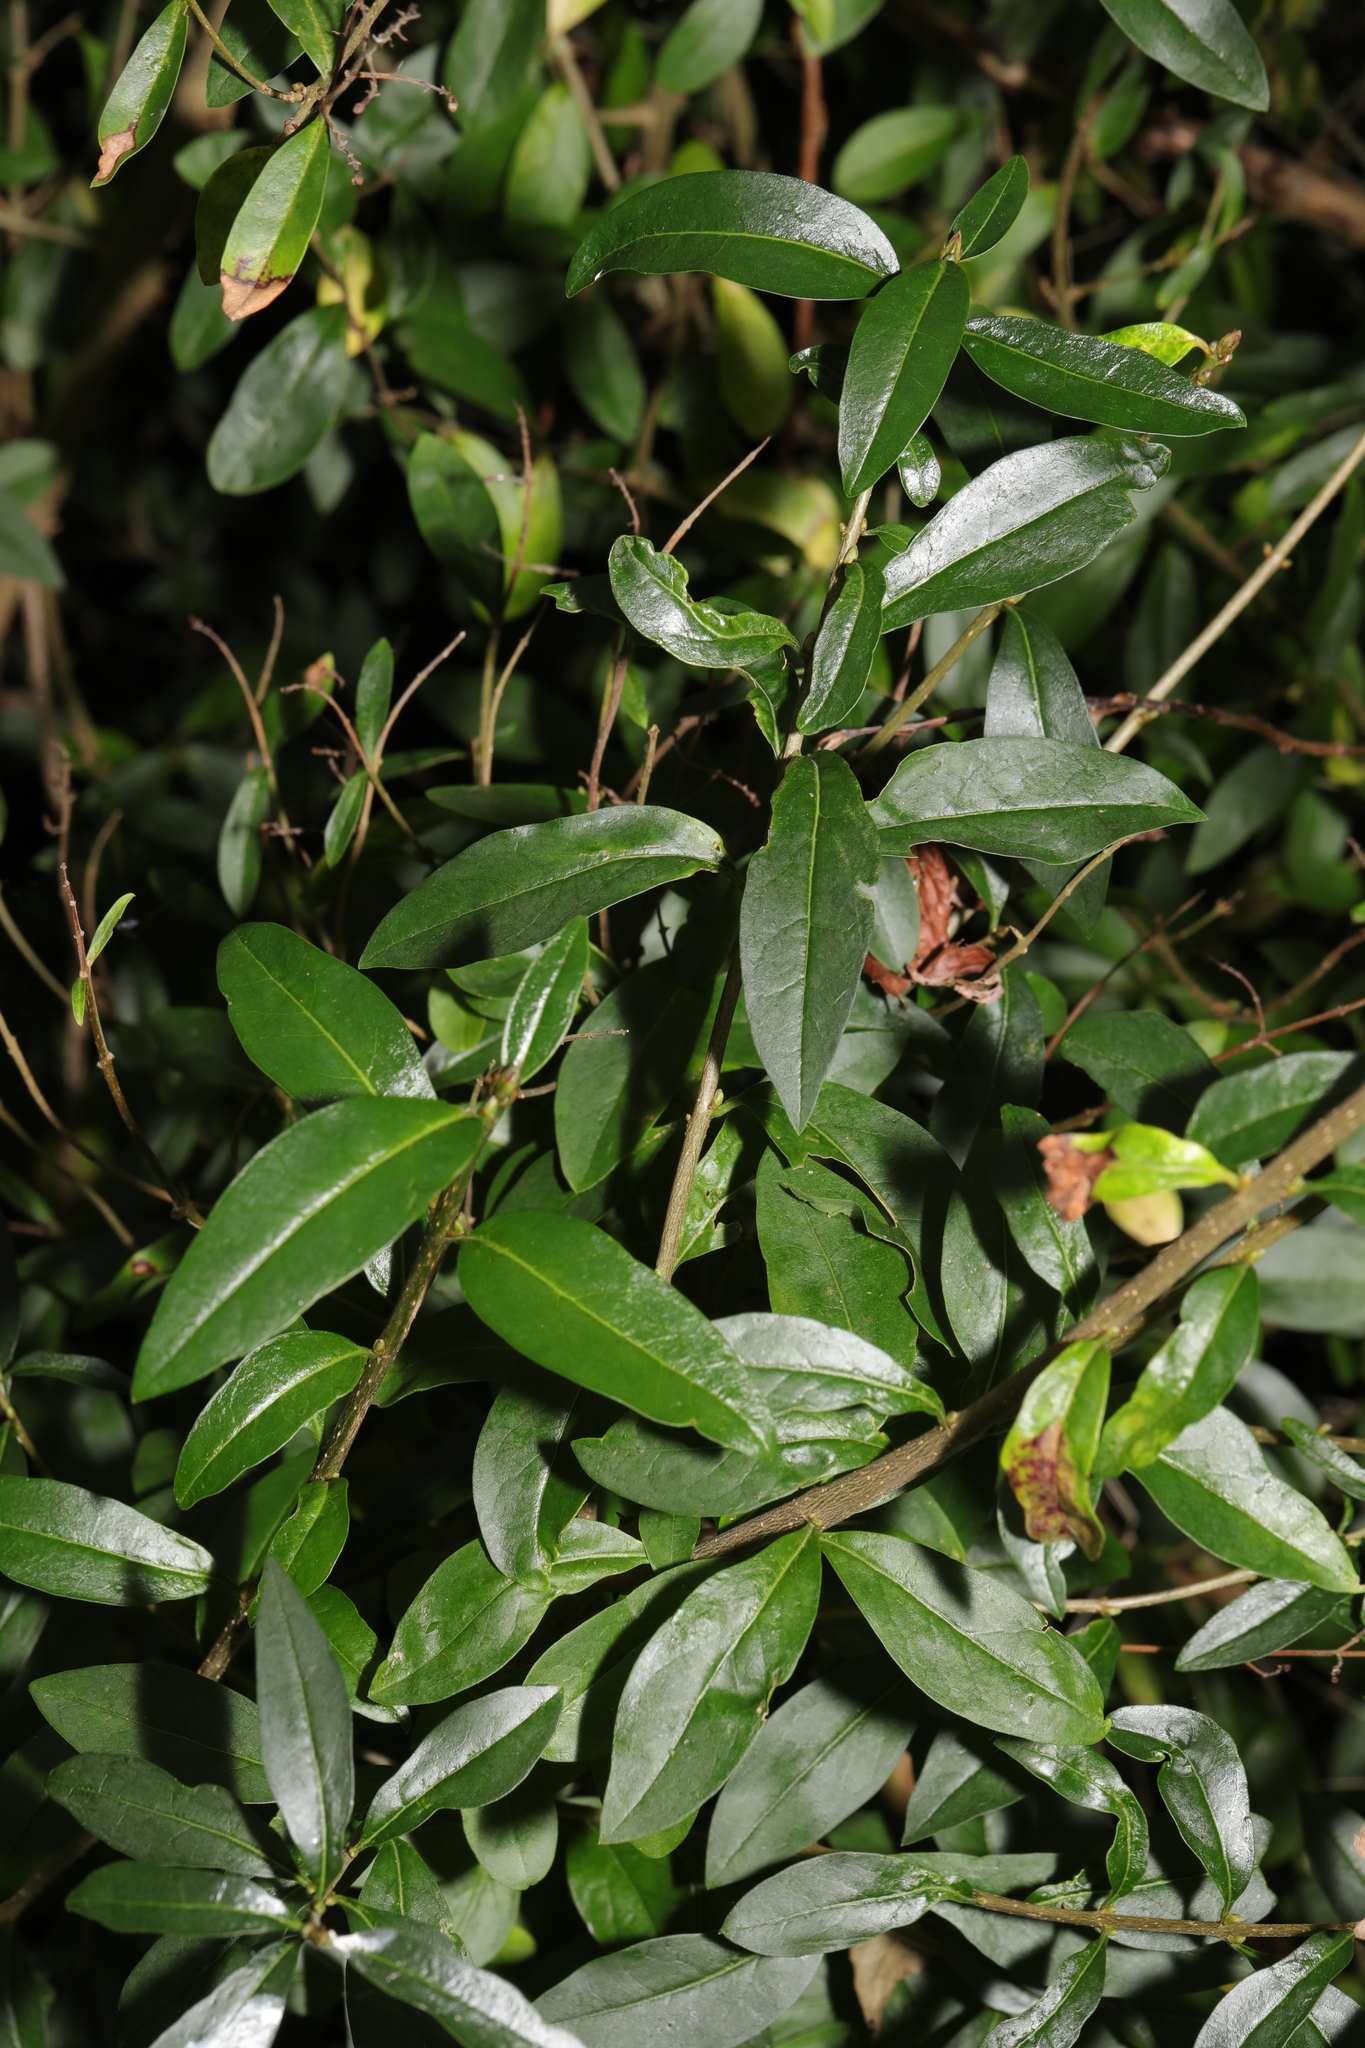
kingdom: Plantae
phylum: Tracheophyta
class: Magnoliopsida
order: Lamiales
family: Oleaceae
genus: Ligustrum
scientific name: Ligustrum vulgare
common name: Wild privet
